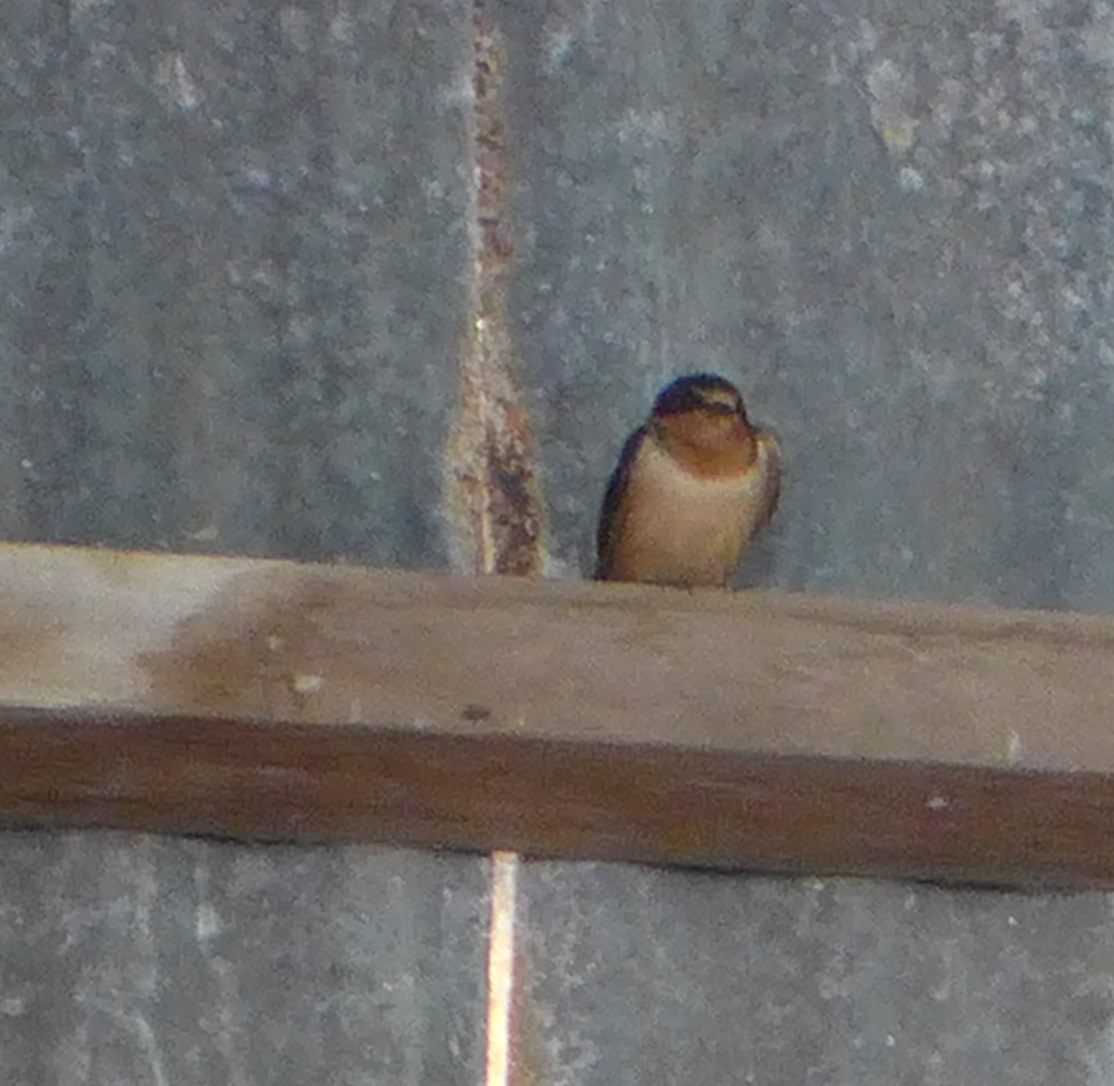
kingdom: Animalia
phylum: Chordata
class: Aves
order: Passeriformes
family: Hirundinidae
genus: Hirundo
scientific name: Hirundo rustica
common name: Barn swallow
